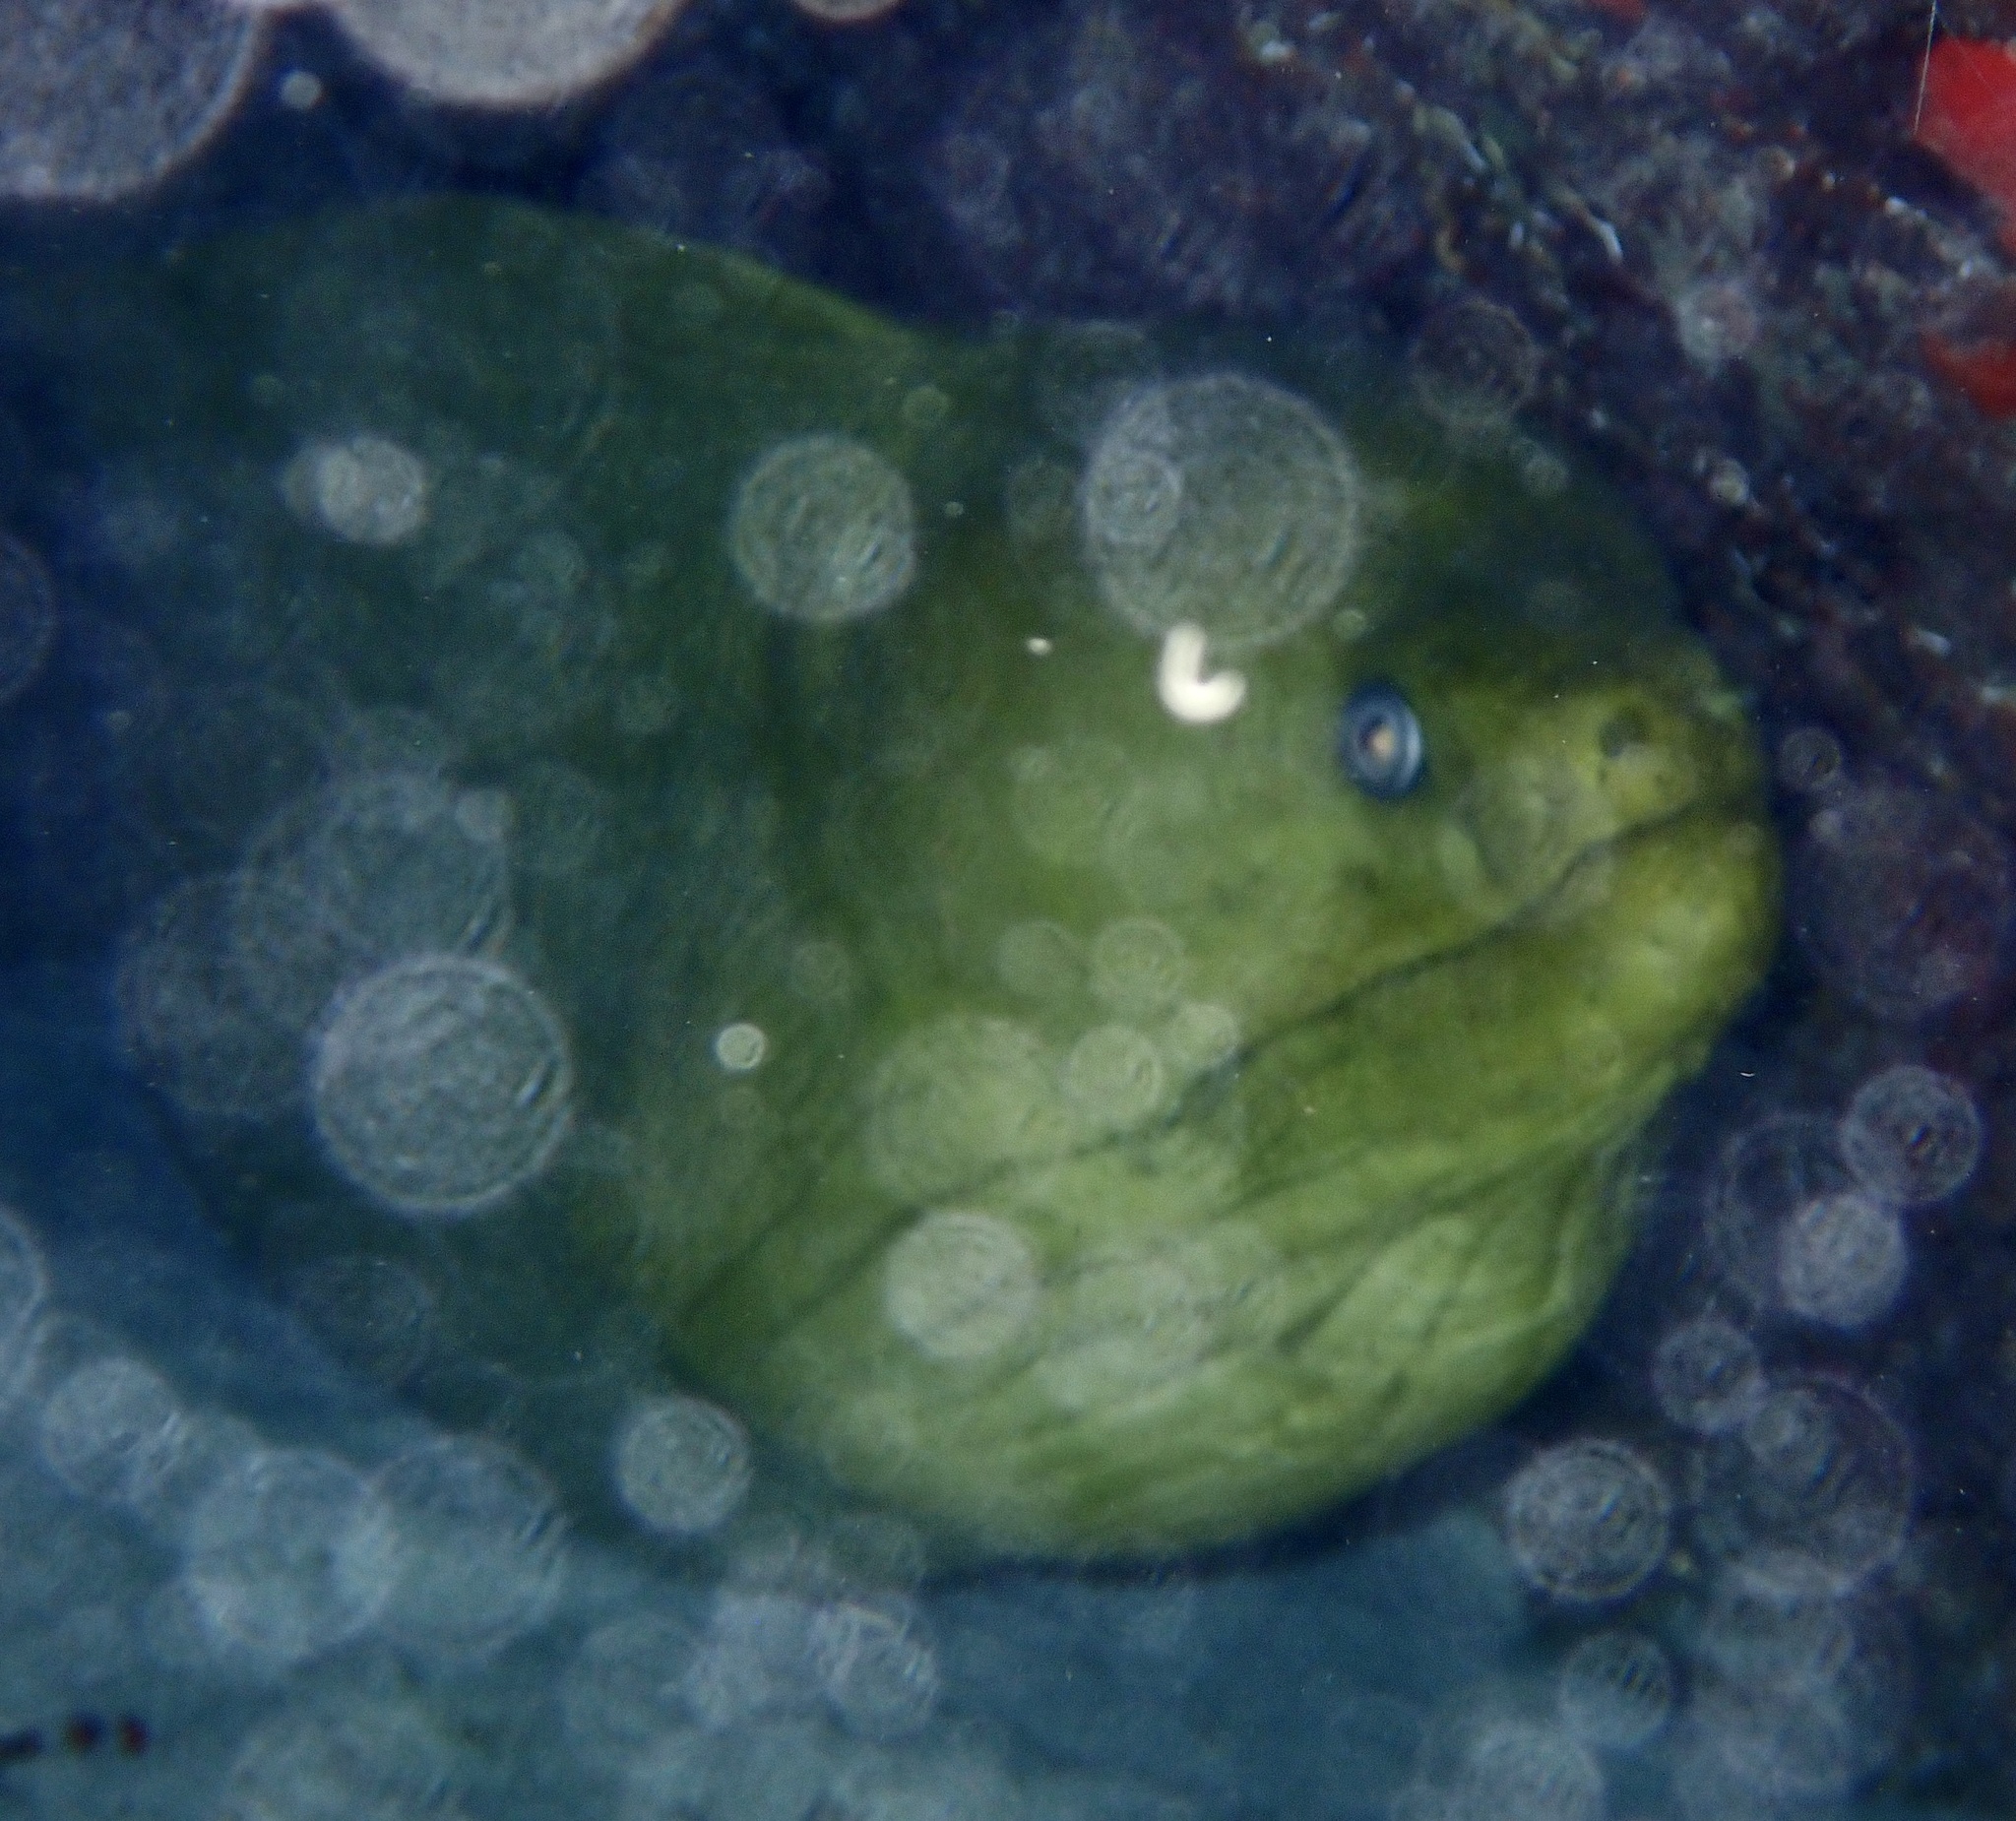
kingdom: Animalia
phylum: Chordata
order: Anguilliformes
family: Muraenidae
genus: Gymnothorax
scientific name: Gymnothorax funebris
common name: Green moray
